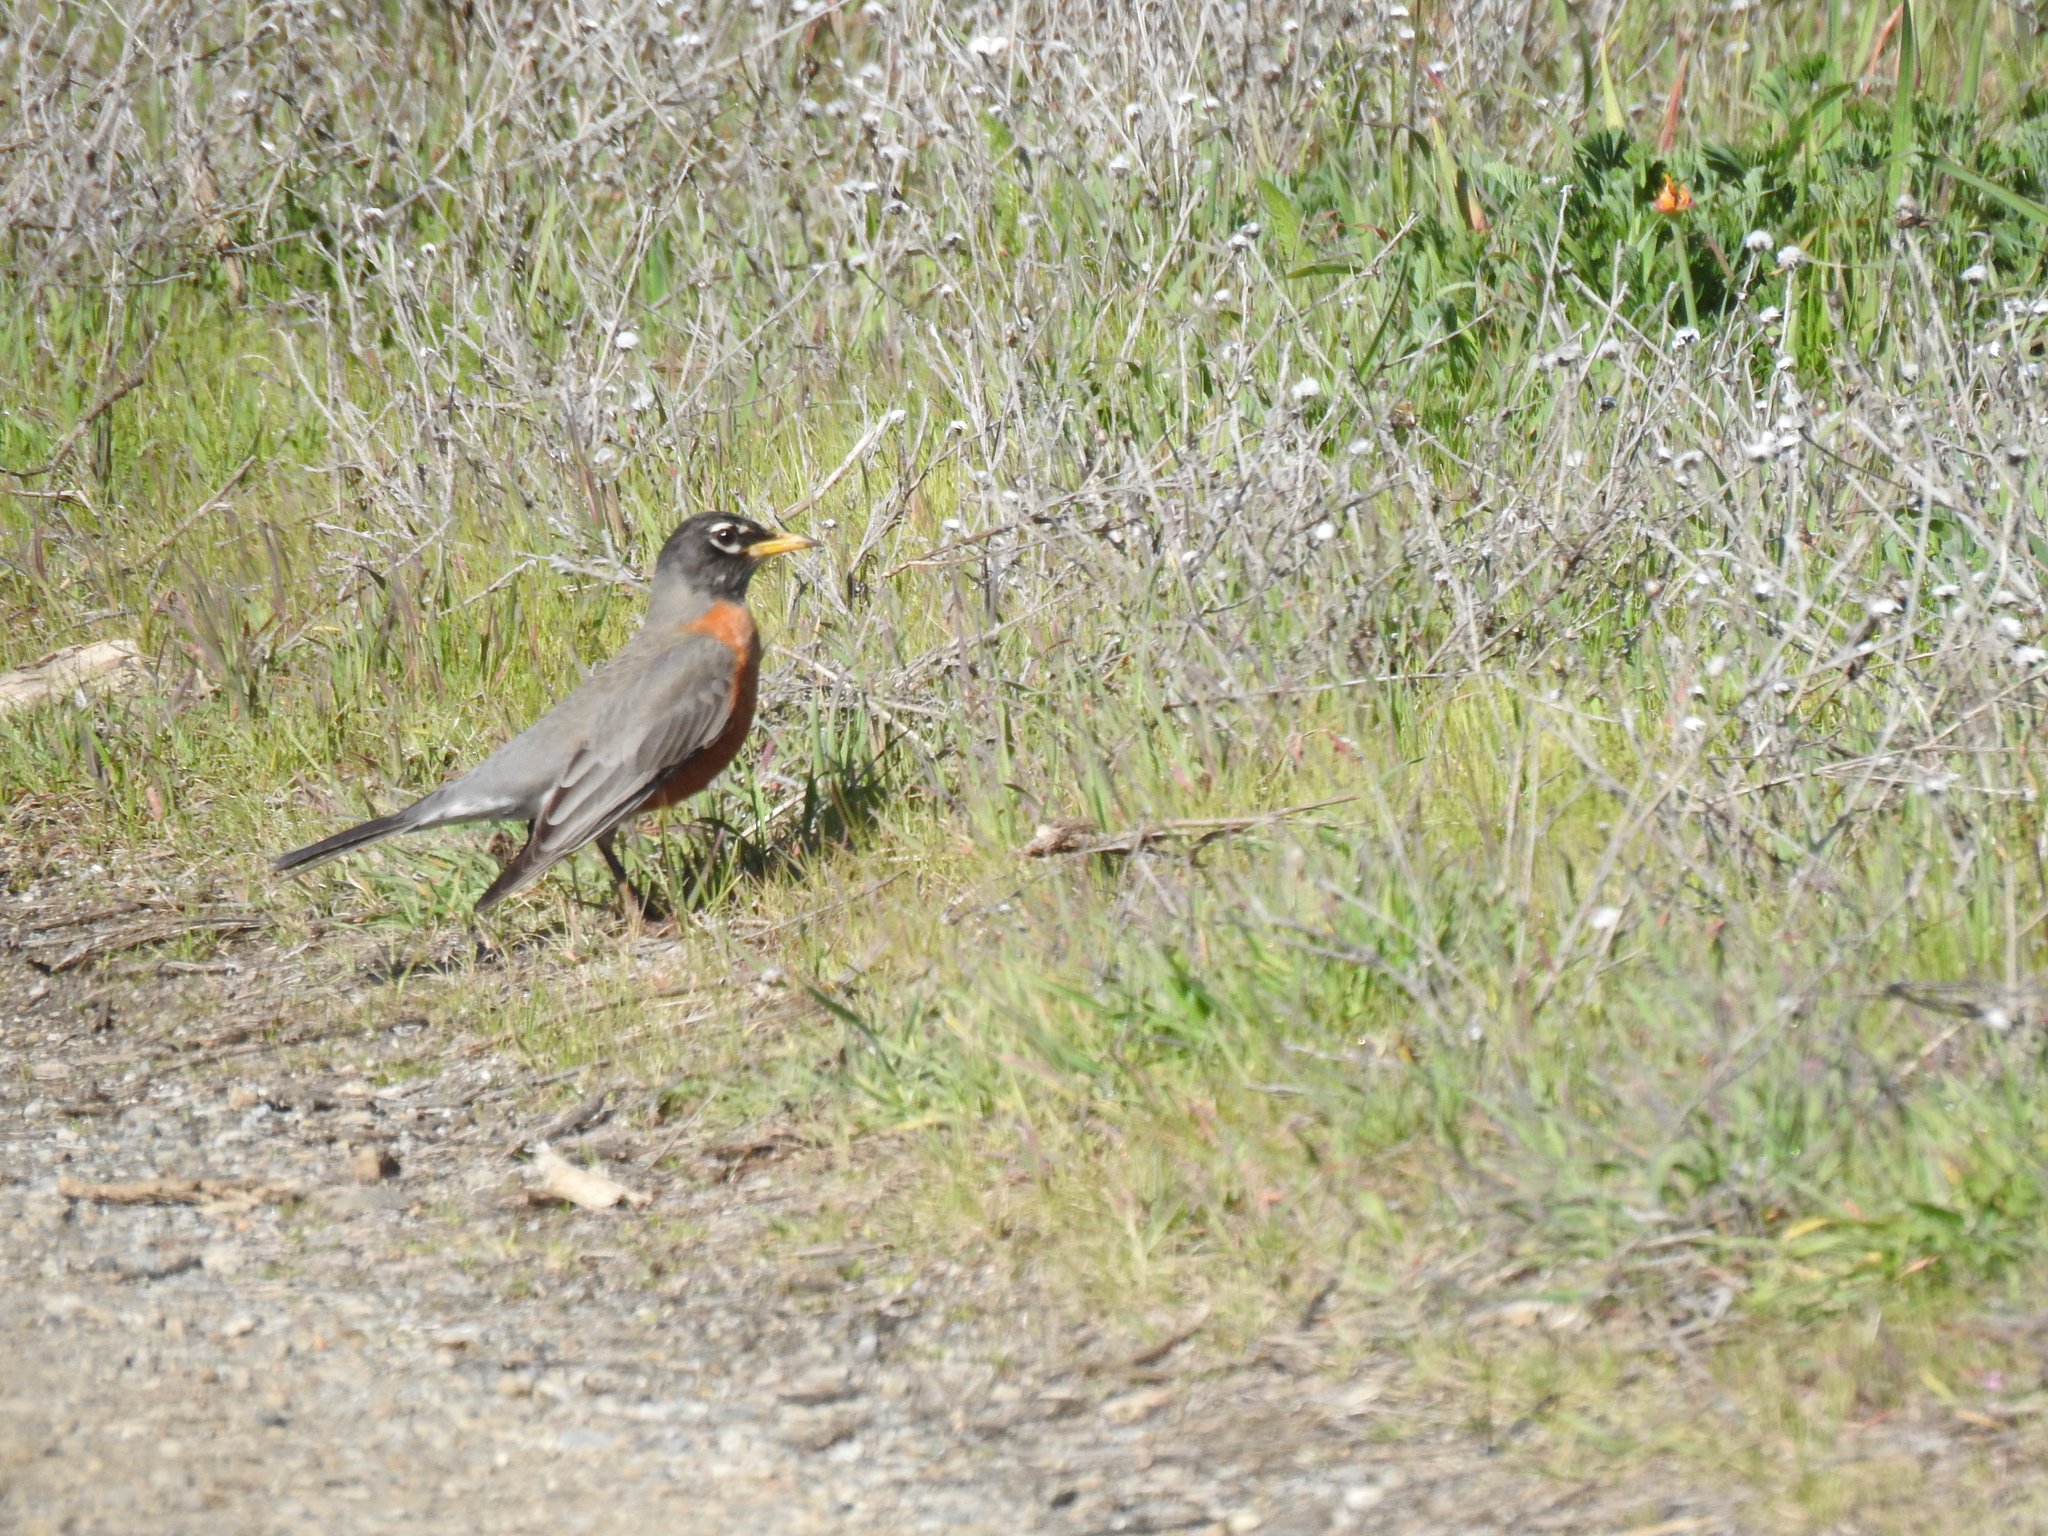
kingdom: Animalia
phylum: Chordata
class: Aves
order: Passeriformes
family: Turdidae
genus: Turdus
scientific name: Turdus migratorius
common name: American robin
